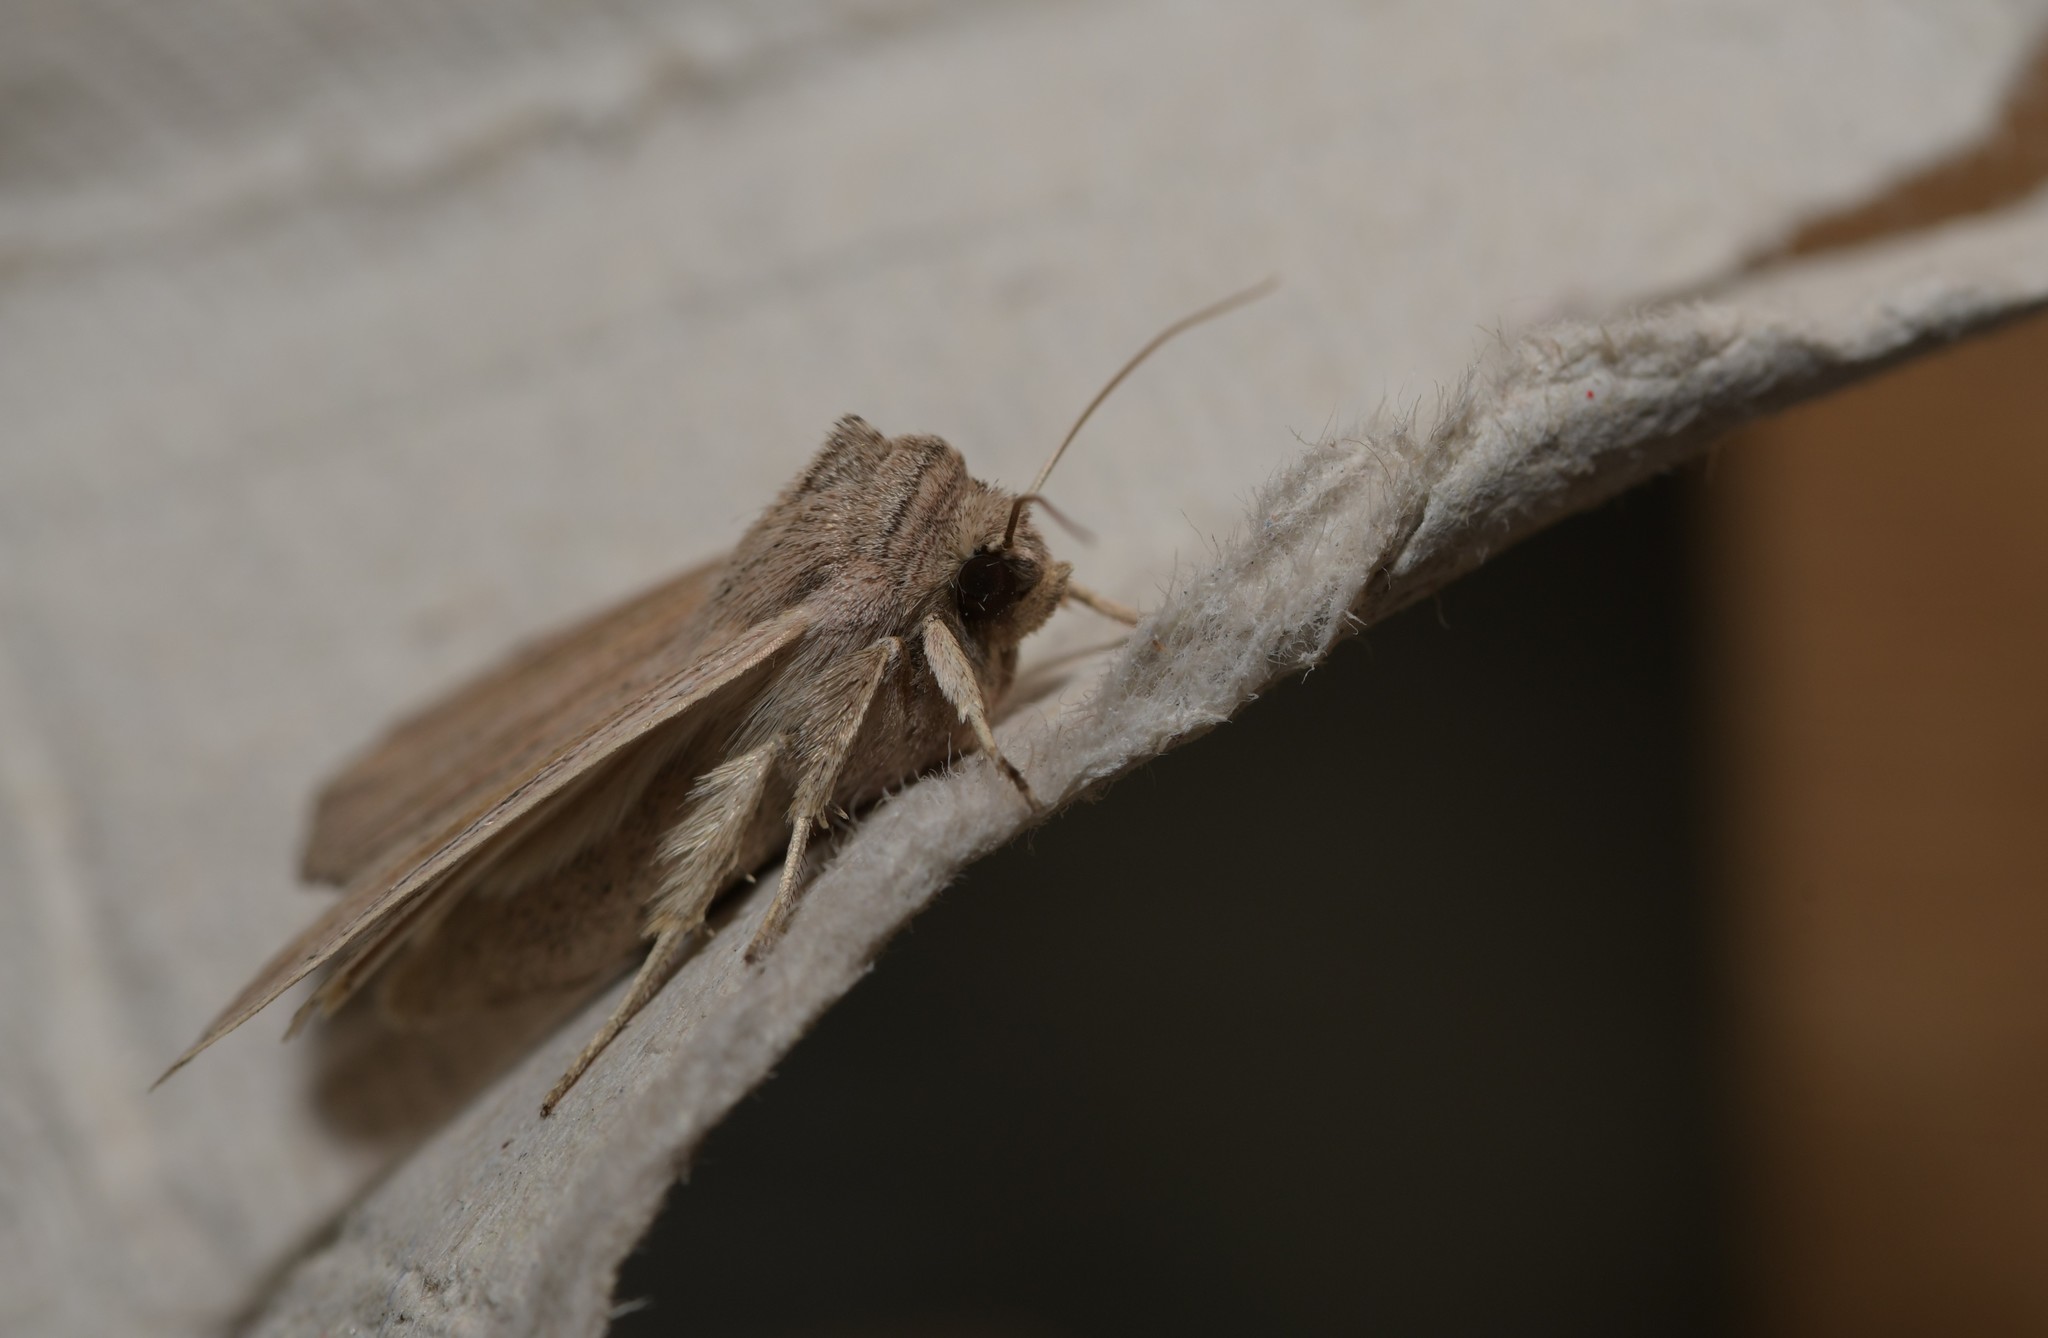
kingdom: Animalia
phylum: Arthropoda
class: Insecta
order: Lepidoptera
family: Noctuidae
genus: Mythimna
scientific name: Mythimna riparia
